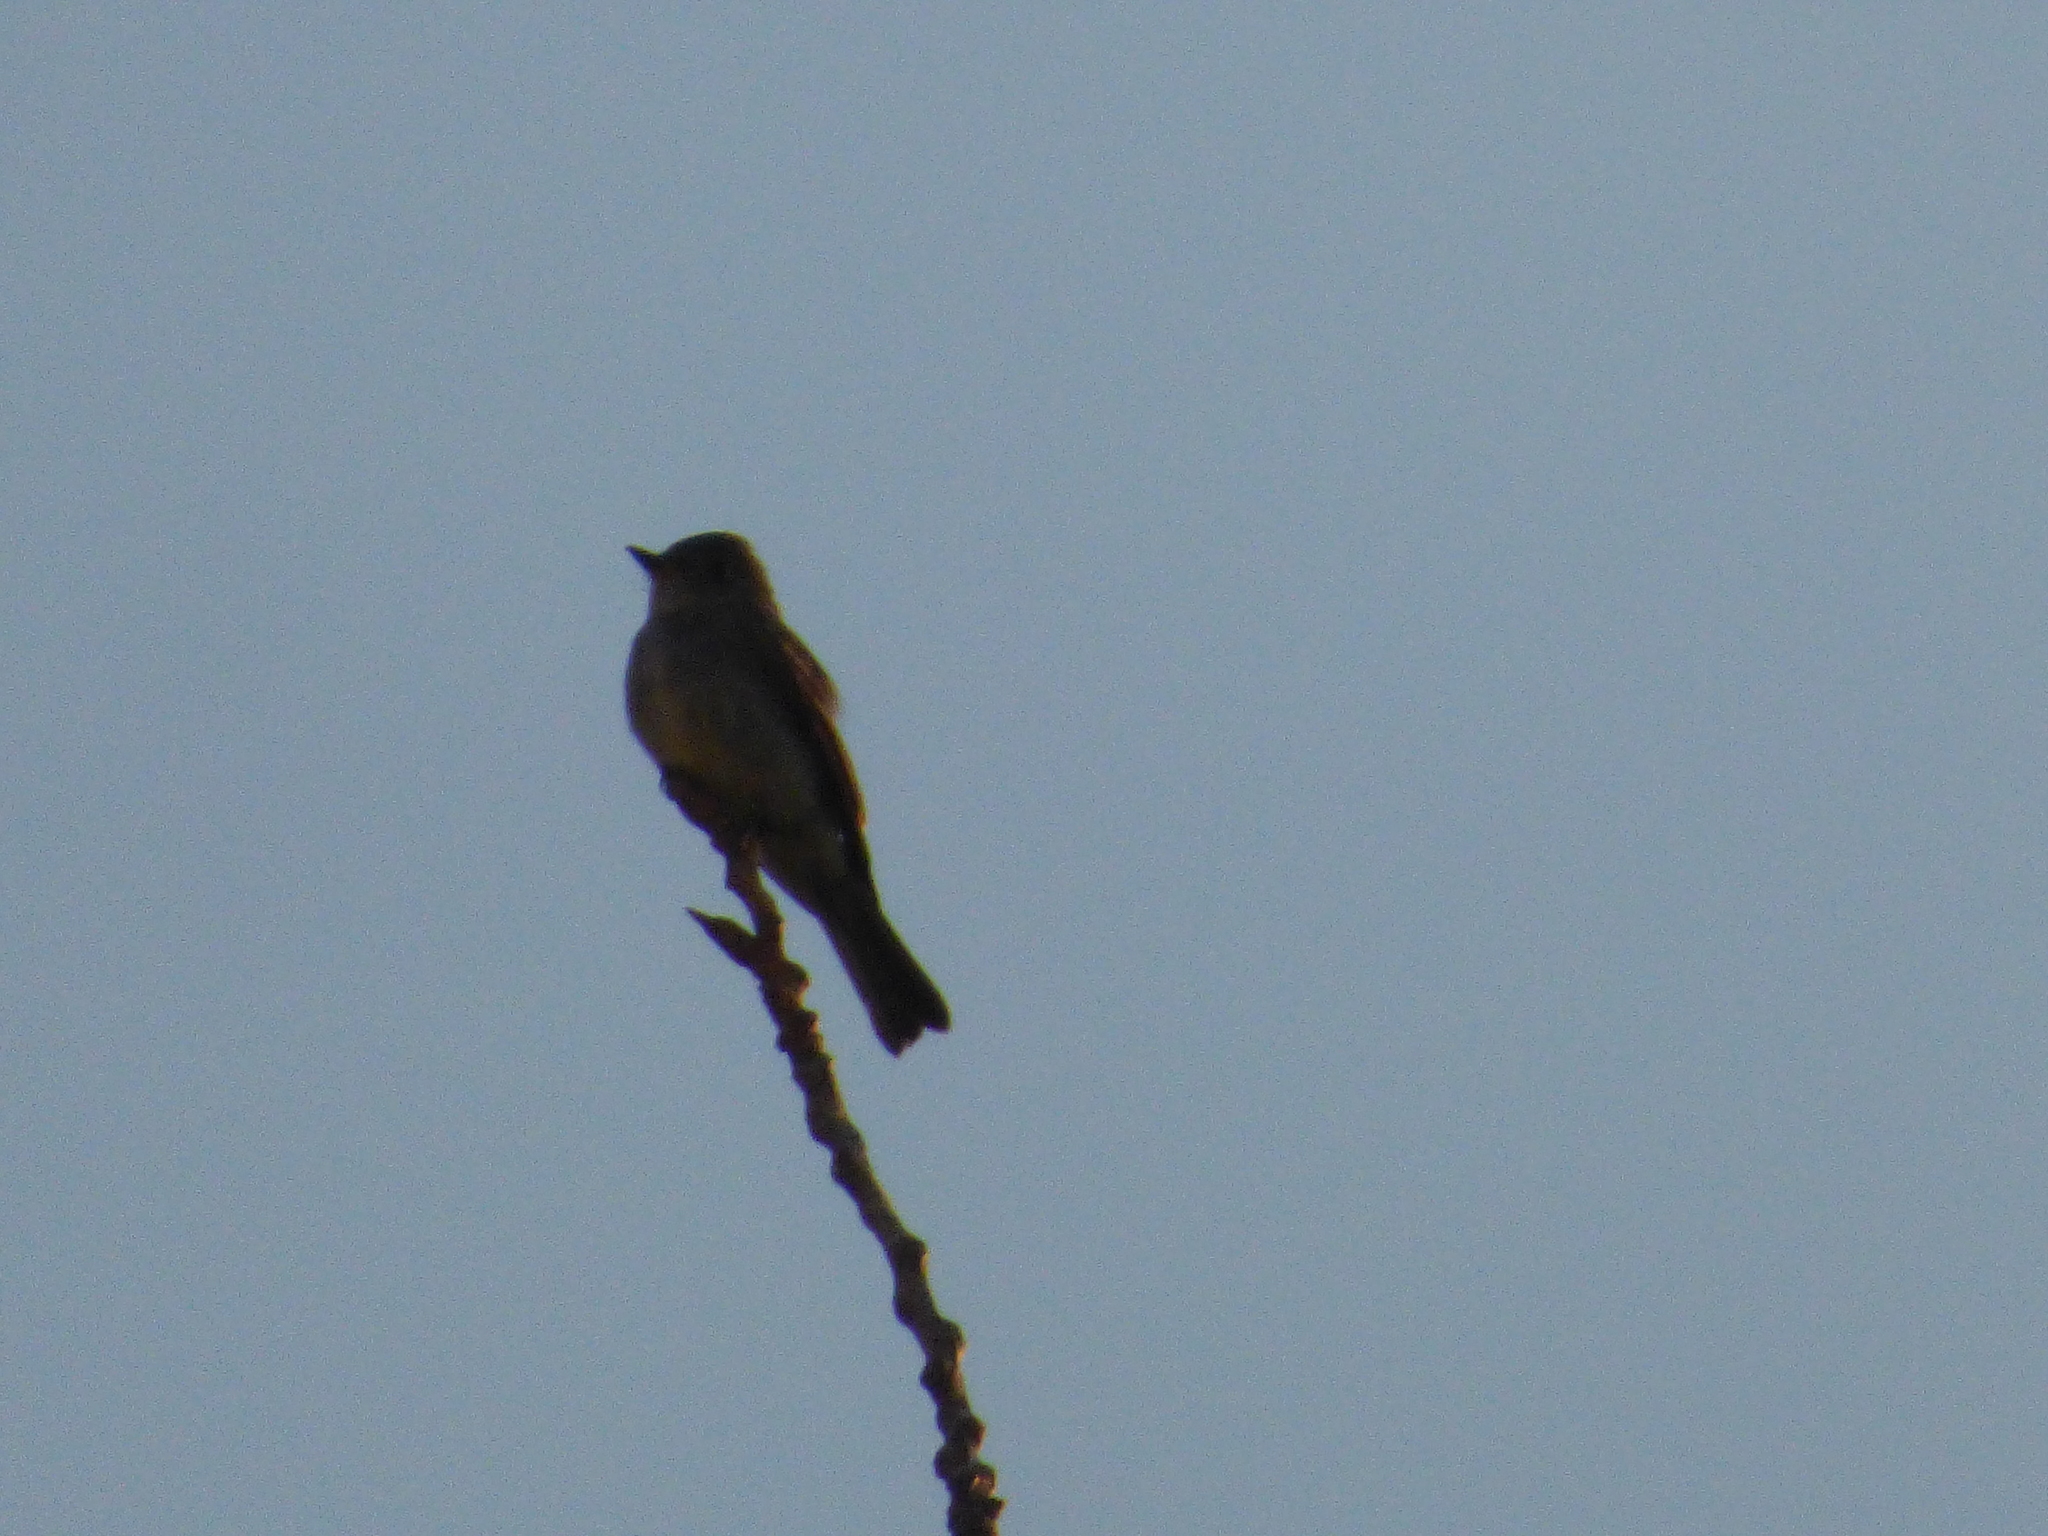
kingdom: Animalia
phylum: Chordata
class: Aves
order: Passeriformes
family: Tyrannidae
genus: Contopus
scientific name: Contopus virens
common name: Eastern wood-pewee
